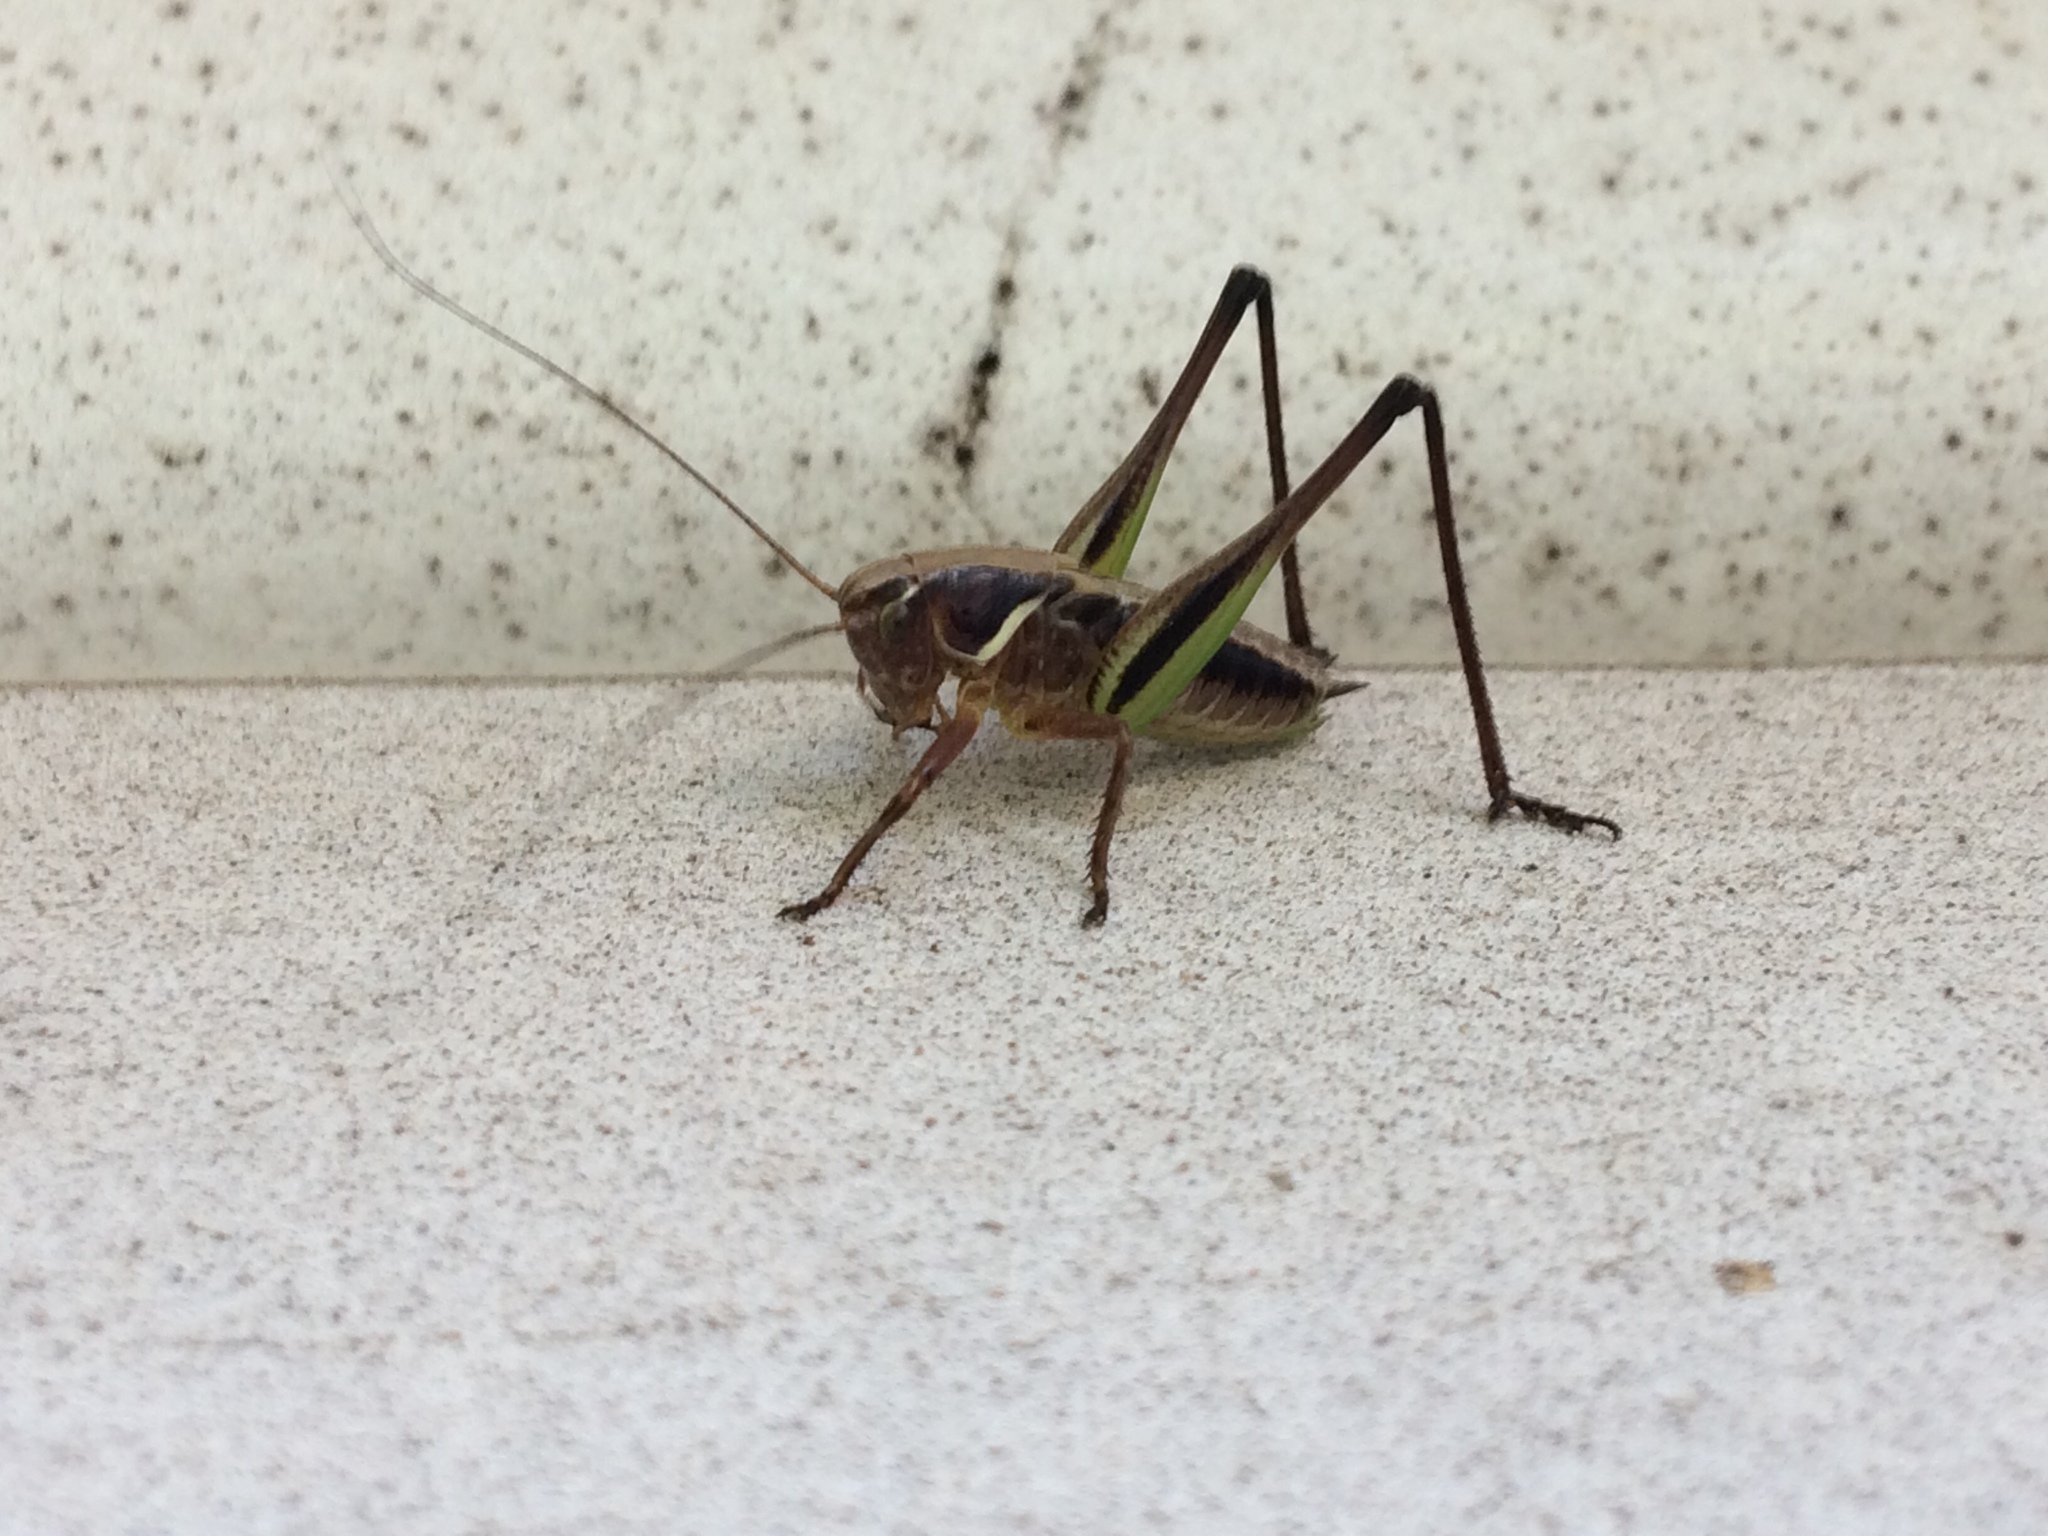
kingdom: Animalia
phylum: Arthropoda
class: Insecta
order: Orthoptera
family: Tettigoniidae
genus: Metrioptera
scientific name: Metrioptera brachyptera
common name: Bog bush-cricket
